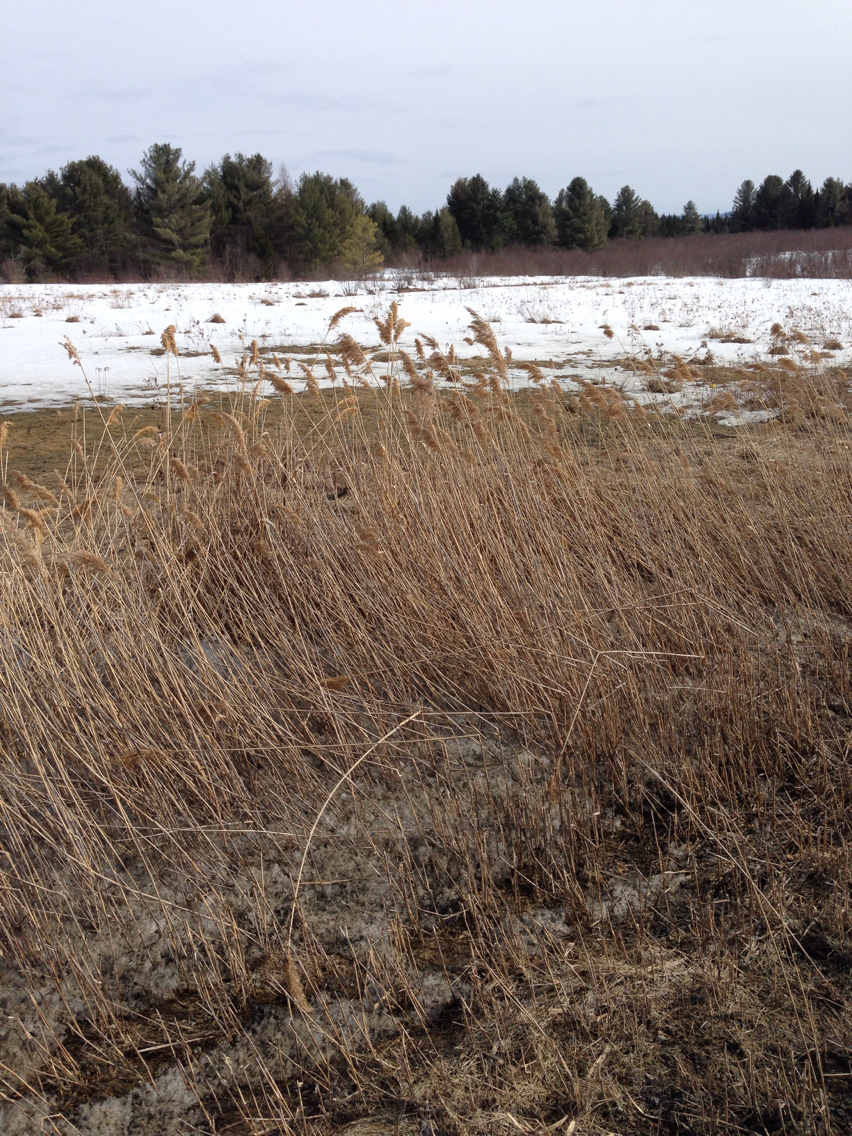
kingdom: Plantae
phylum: Tracheophyta
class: Liliopsida
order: Poales
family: Poaceae
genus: Phragmites
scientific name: Phragmites australis
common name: Common reed
